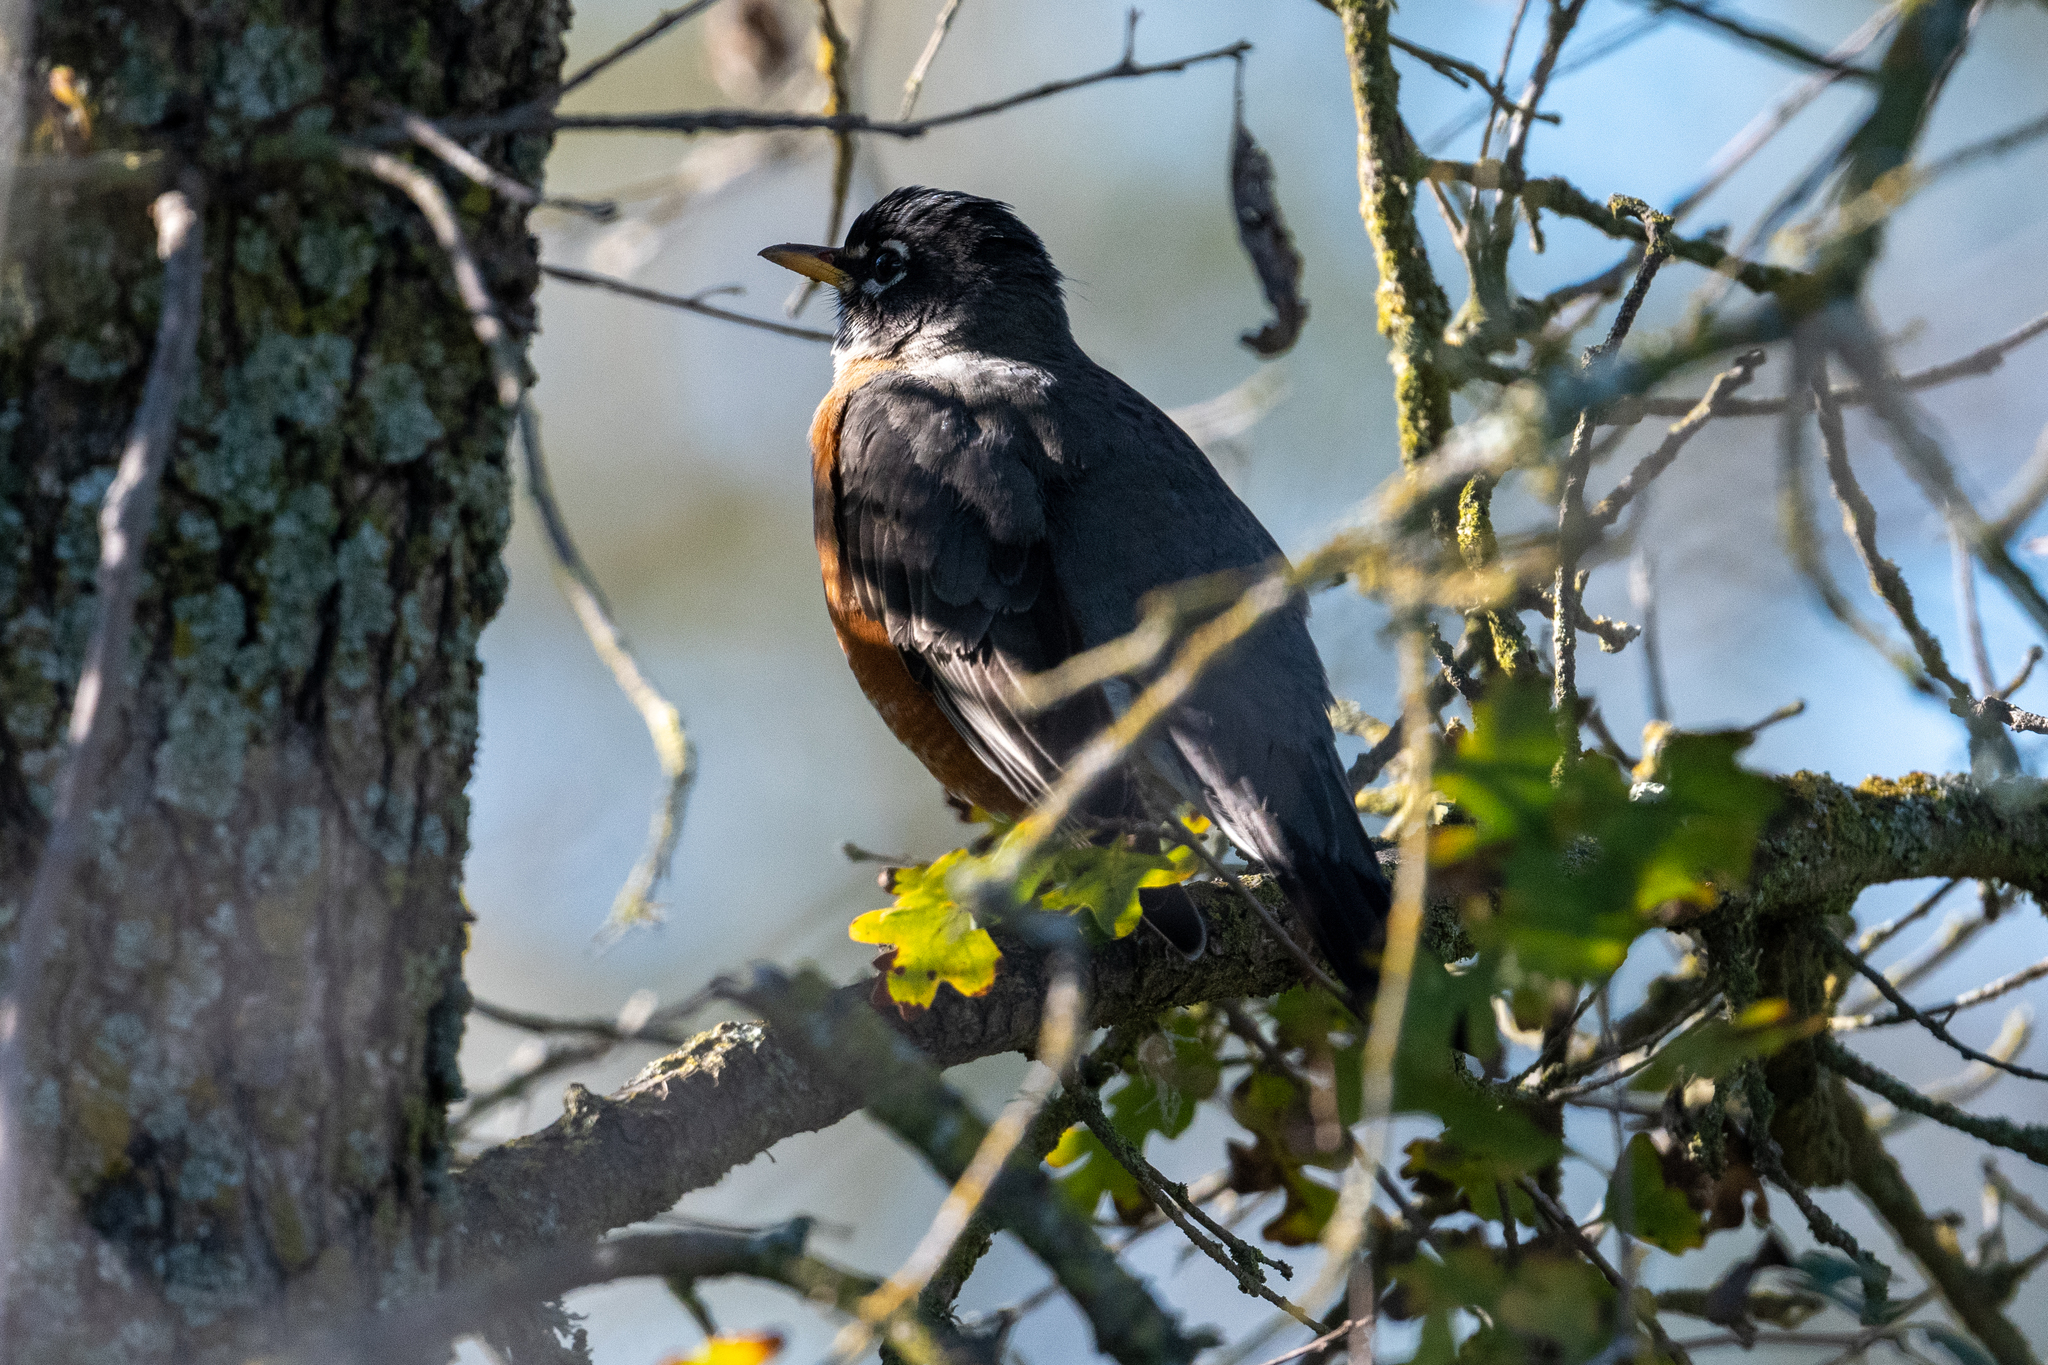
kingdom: Animalia
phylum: Chordata
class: Aves
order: Passeriformes
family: Turdidae
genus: Turdus
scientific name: Turdus migratorius
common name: American robin
